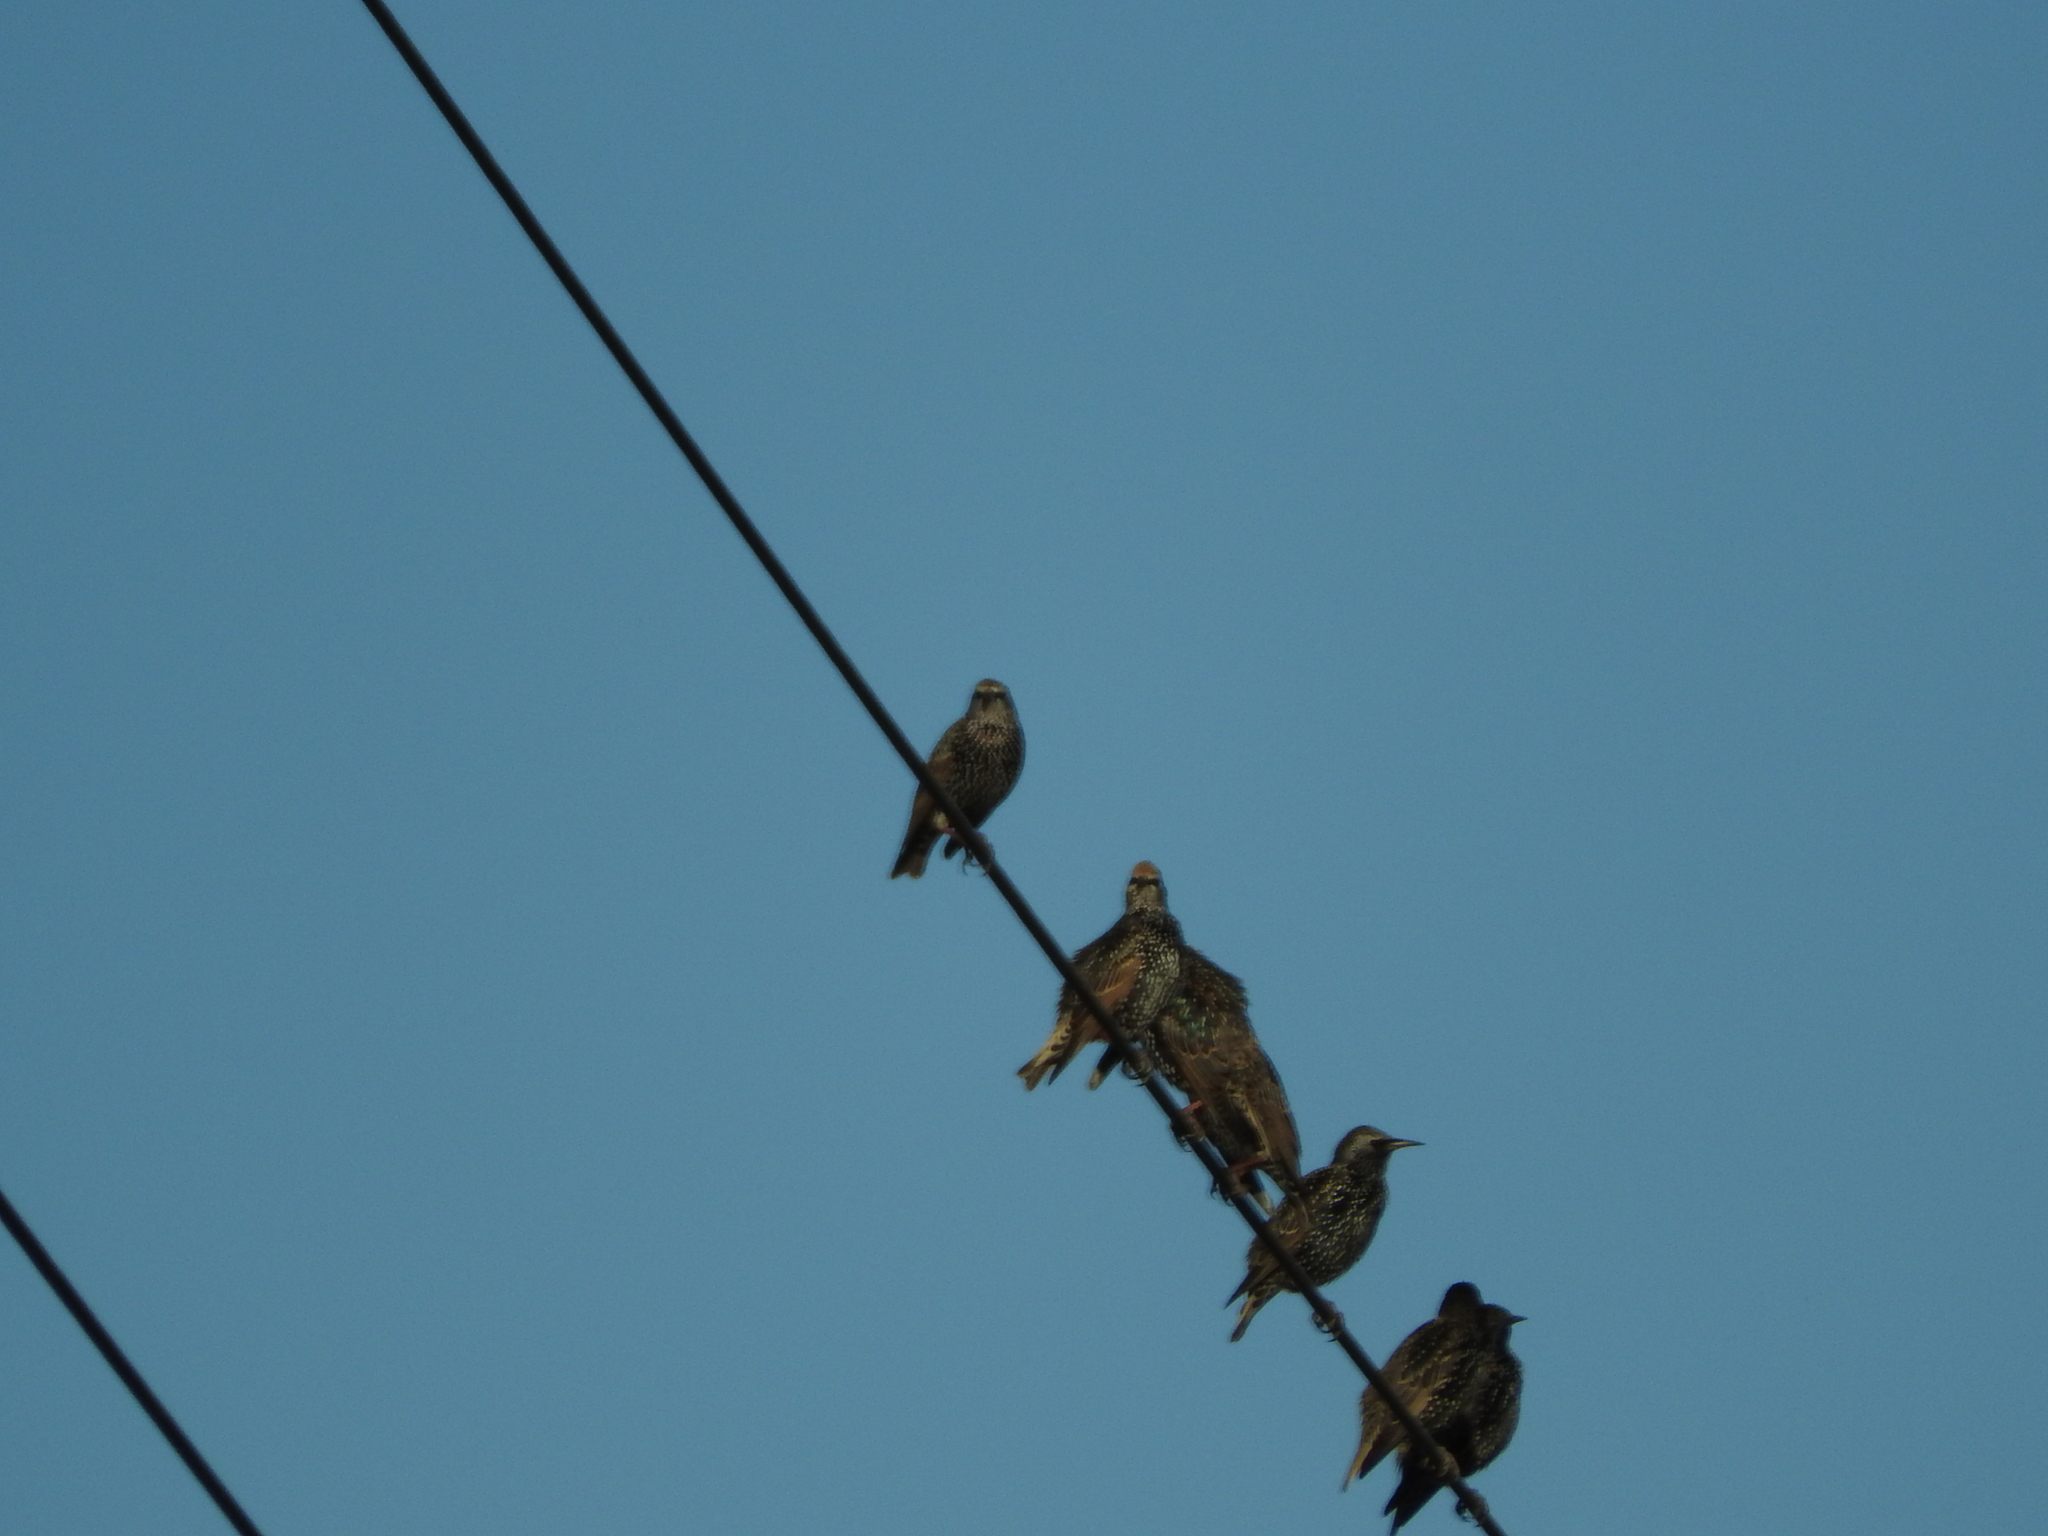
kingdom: Animalia
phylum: Chordata
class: Aves
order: Passeriformes
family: Sturnidae
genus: Sturnus
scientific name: Sturnus vulgaris
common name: Common starling
